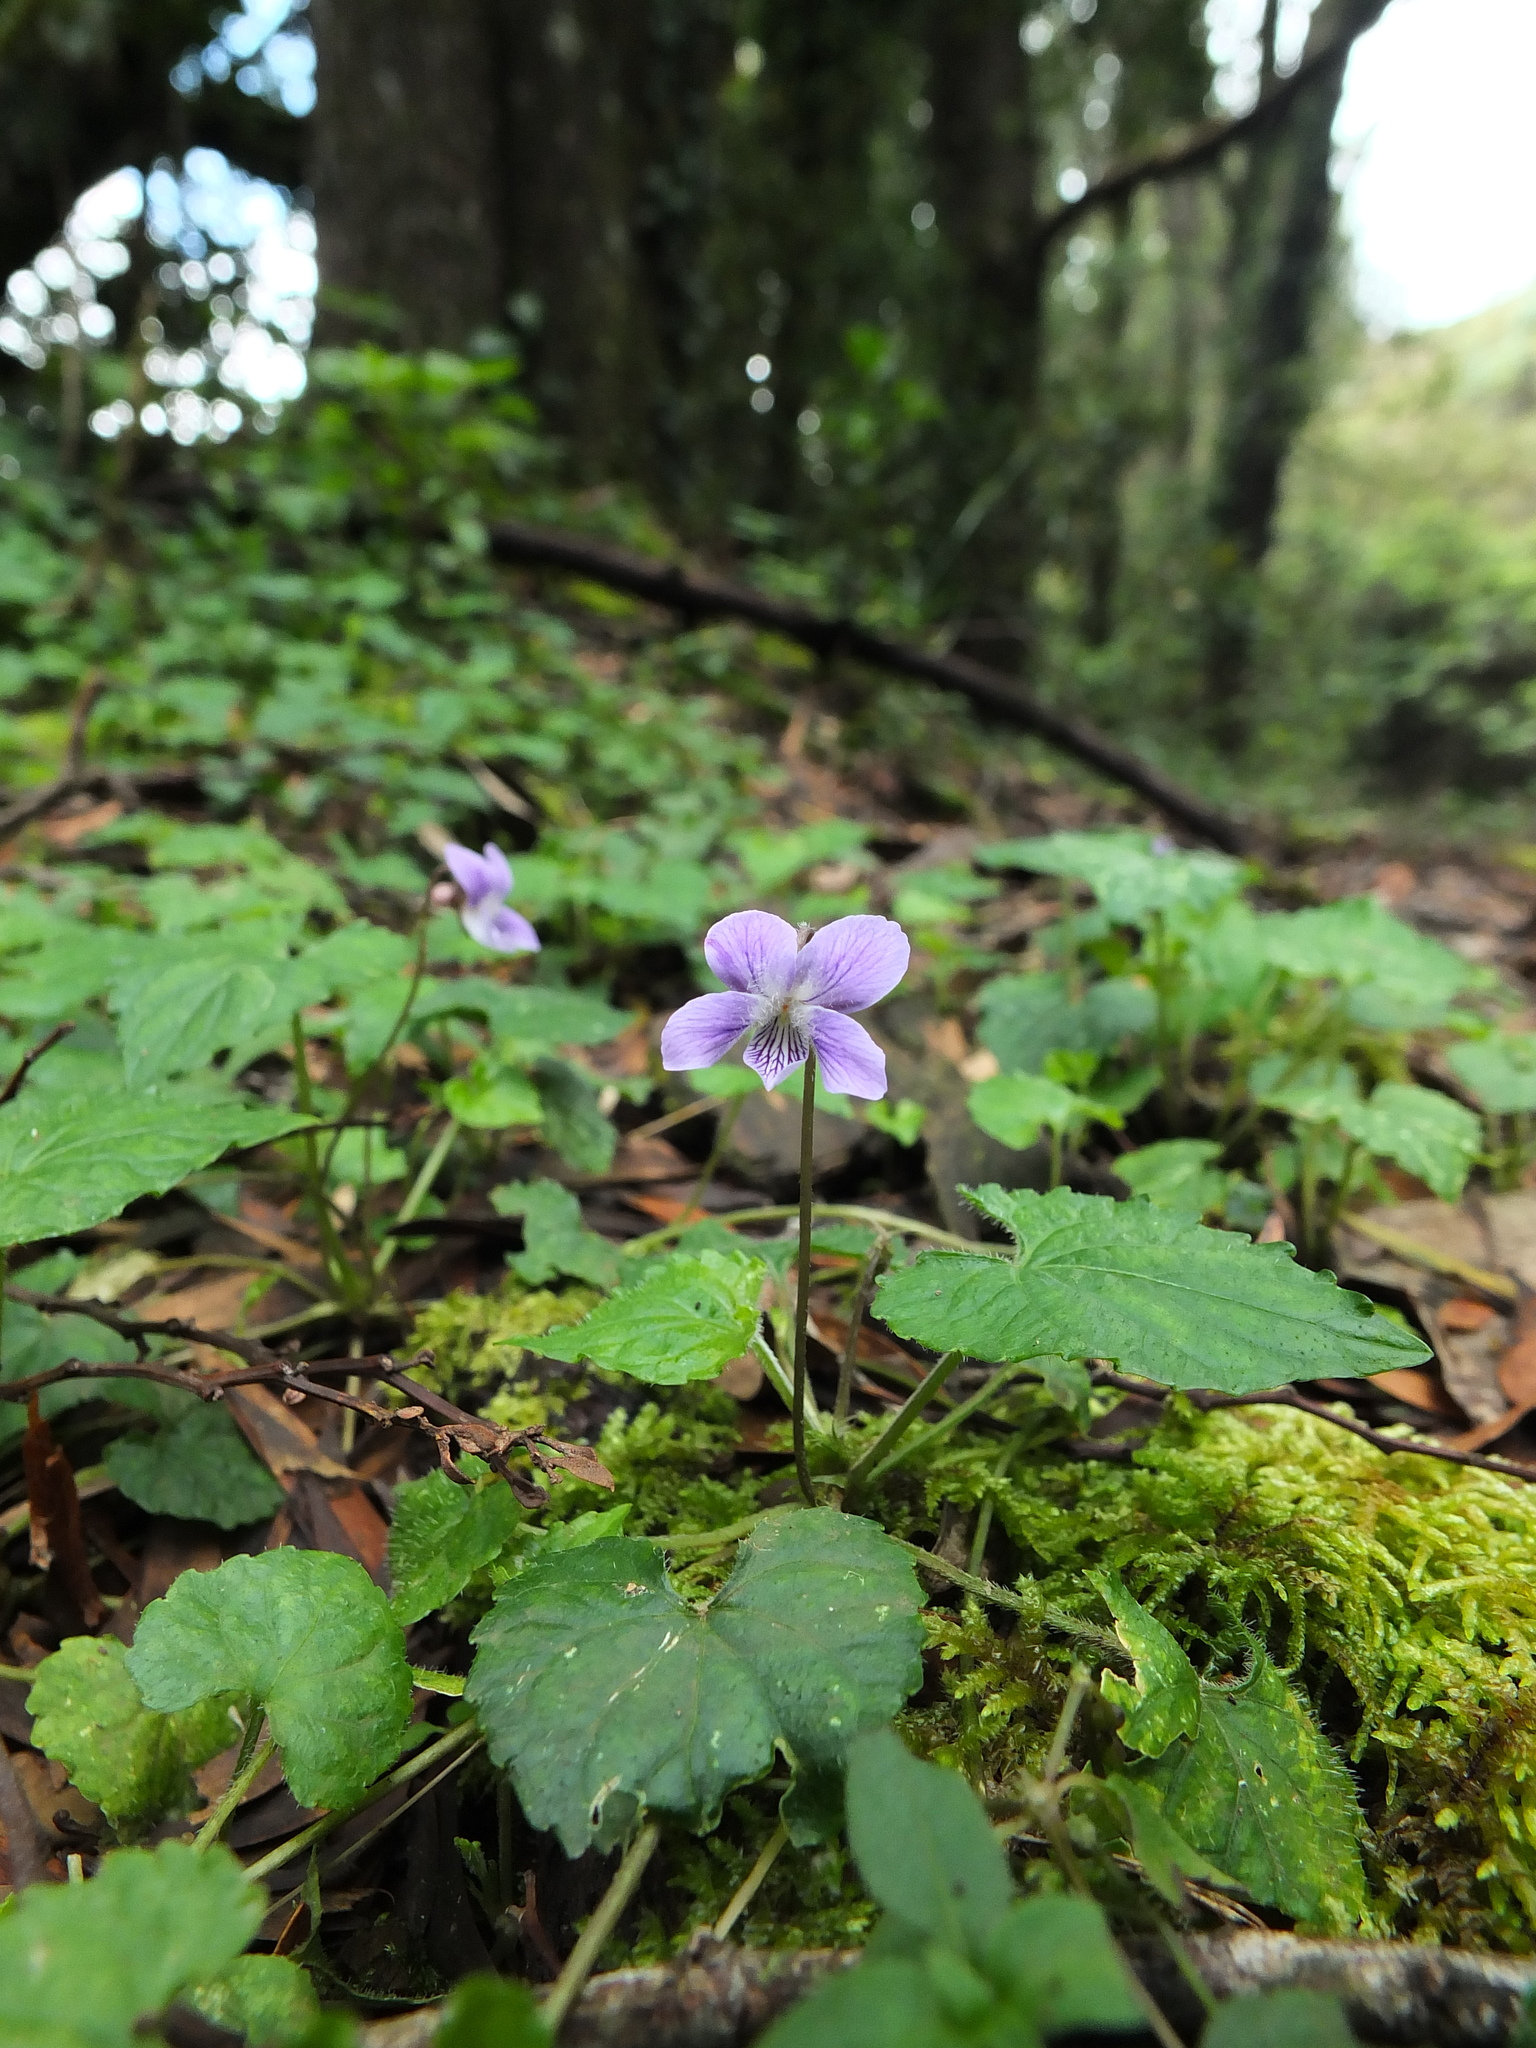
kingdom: Plantae
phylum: Tracheophyta
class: Magnoliopsida
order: Malpighiales
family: Violaceae
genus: Viola
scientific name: Viola pilosa
